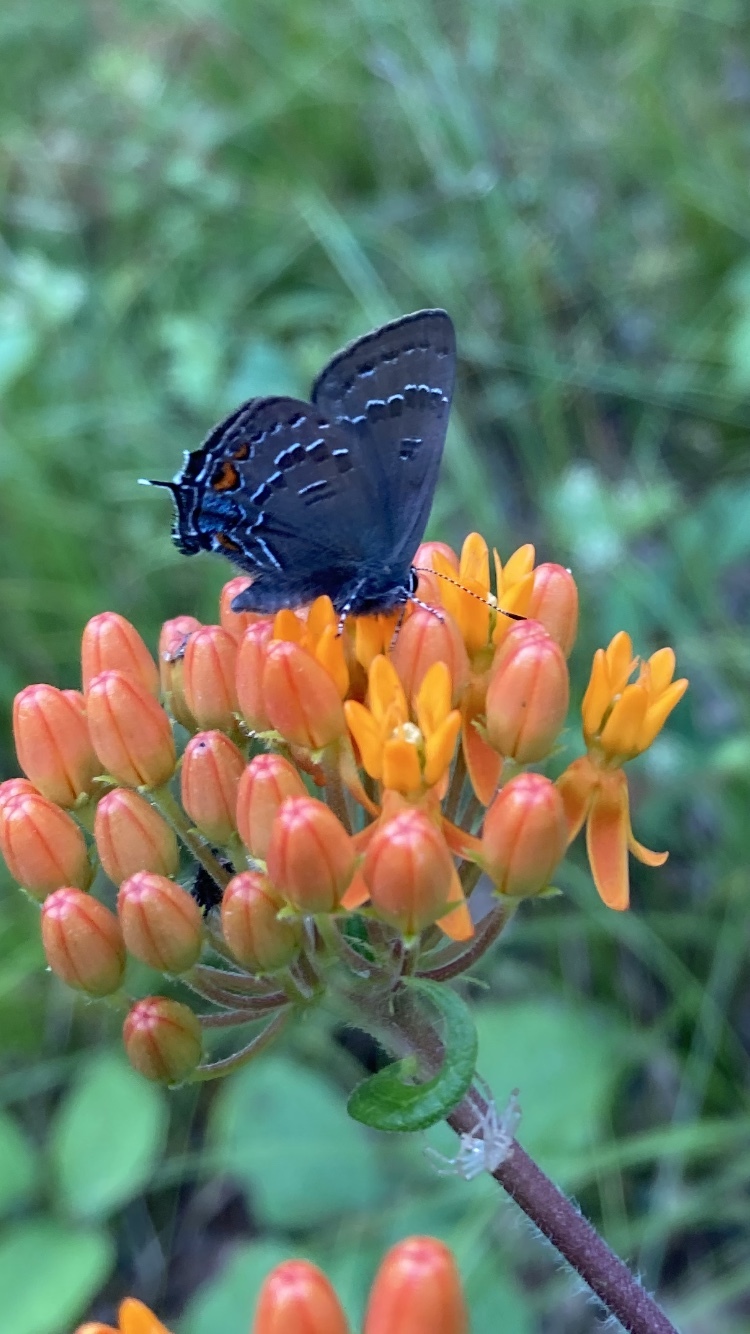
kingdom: Animalia
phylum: Arthropoda
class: Insecta
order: Lepidoptera
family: Lycaenidae
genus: Satyrium
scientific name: Satyrium calanus
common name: Banded hairstreak
